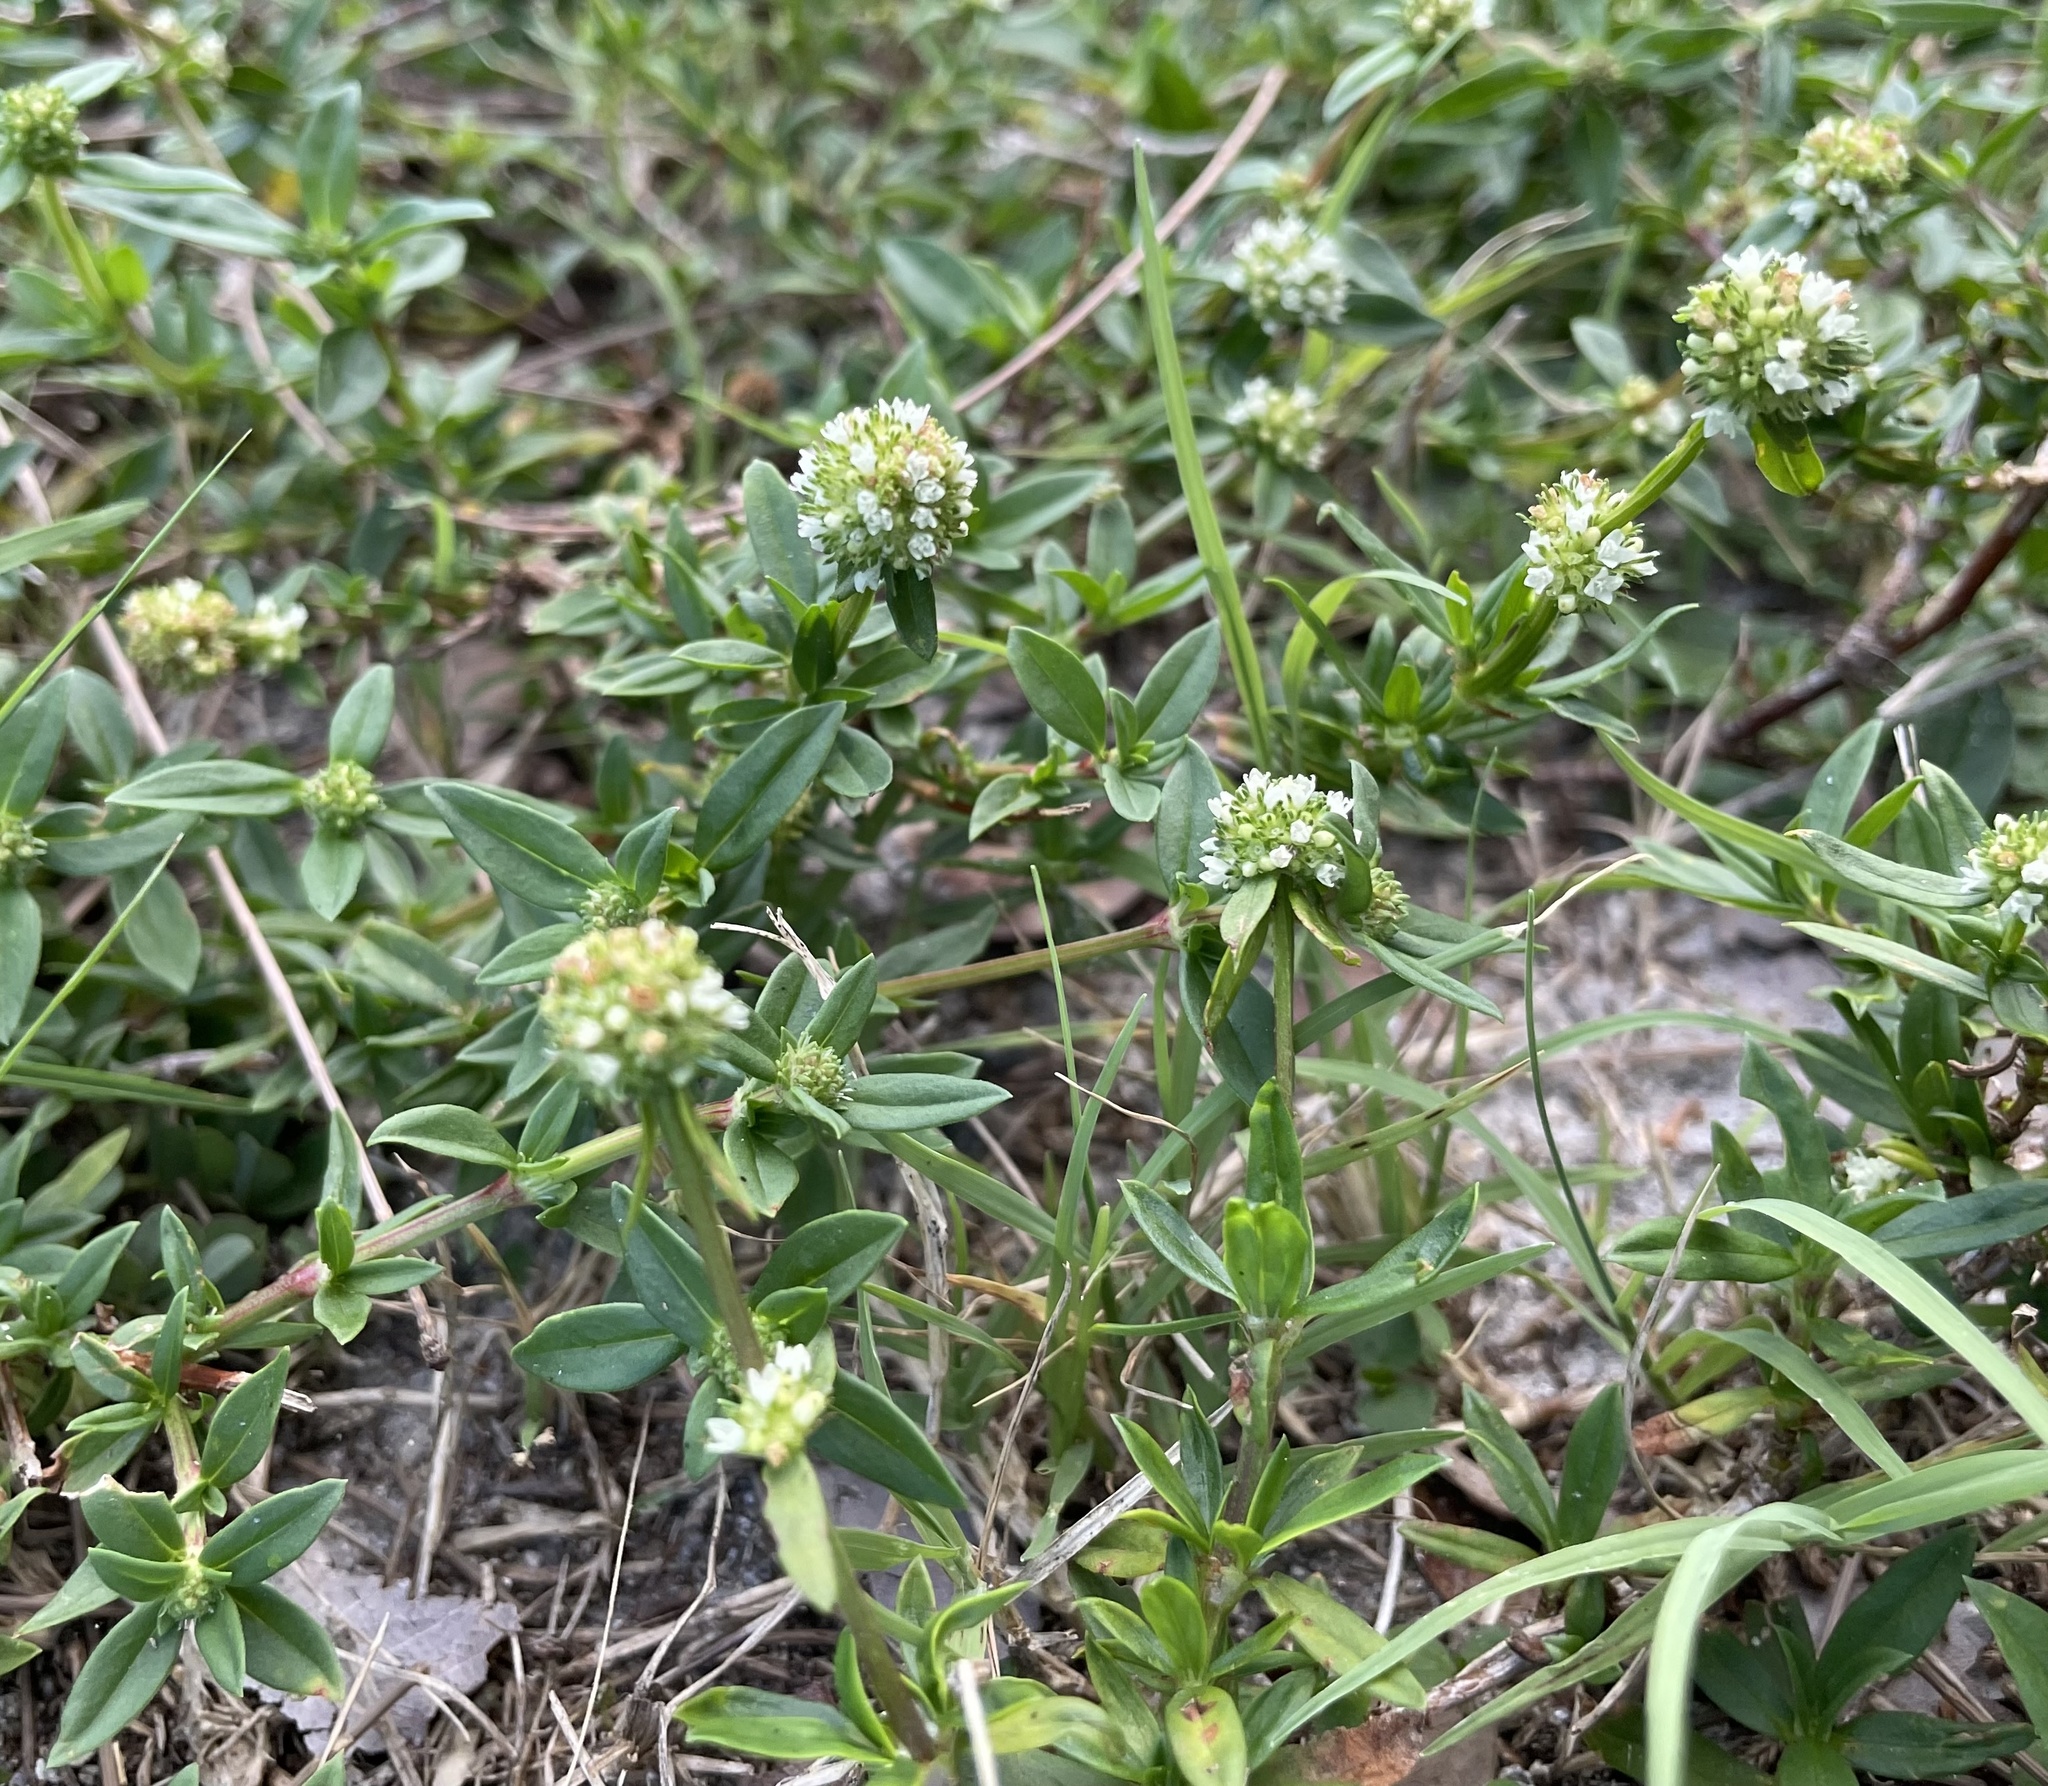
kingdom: Plantae
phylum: Tracheophyta
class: Magnoliopsida
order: Gentianales
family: Rubiaceae
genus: Spermacoce
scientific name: Spermacoce verticillata
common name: Shrubby false buttonweed
